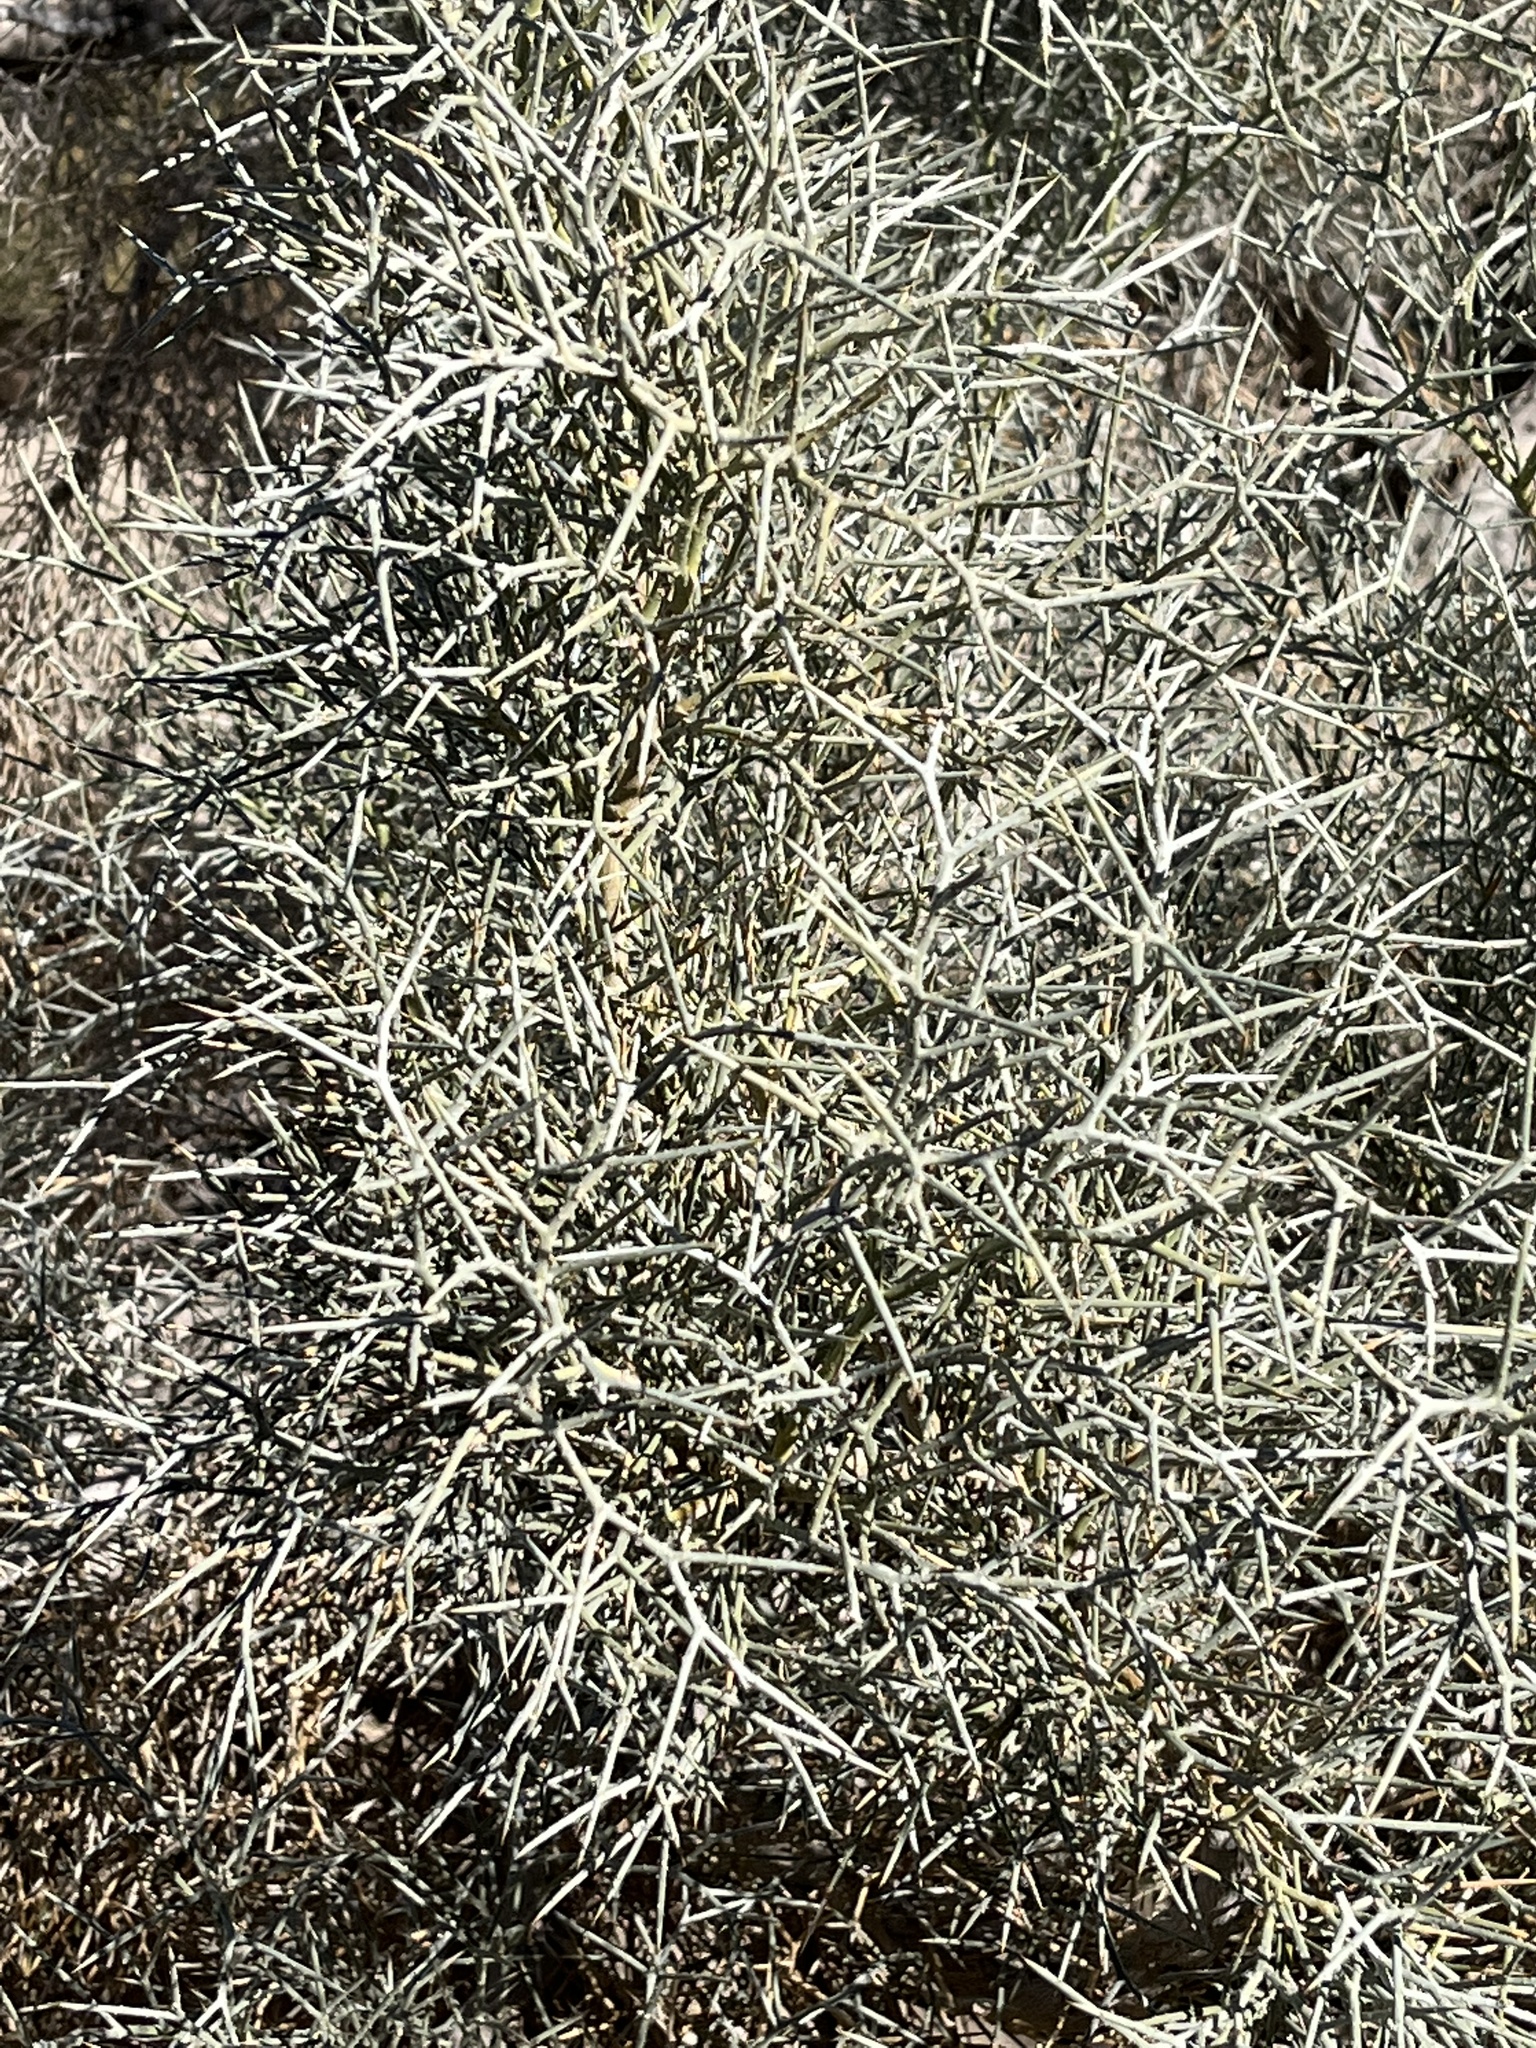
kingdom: Plantae
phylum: Tracheophyta
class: Magnoliopsida
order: Fabales
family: Fabaceae
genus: Psorothamnus
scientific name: Psorothamnus spinosus
